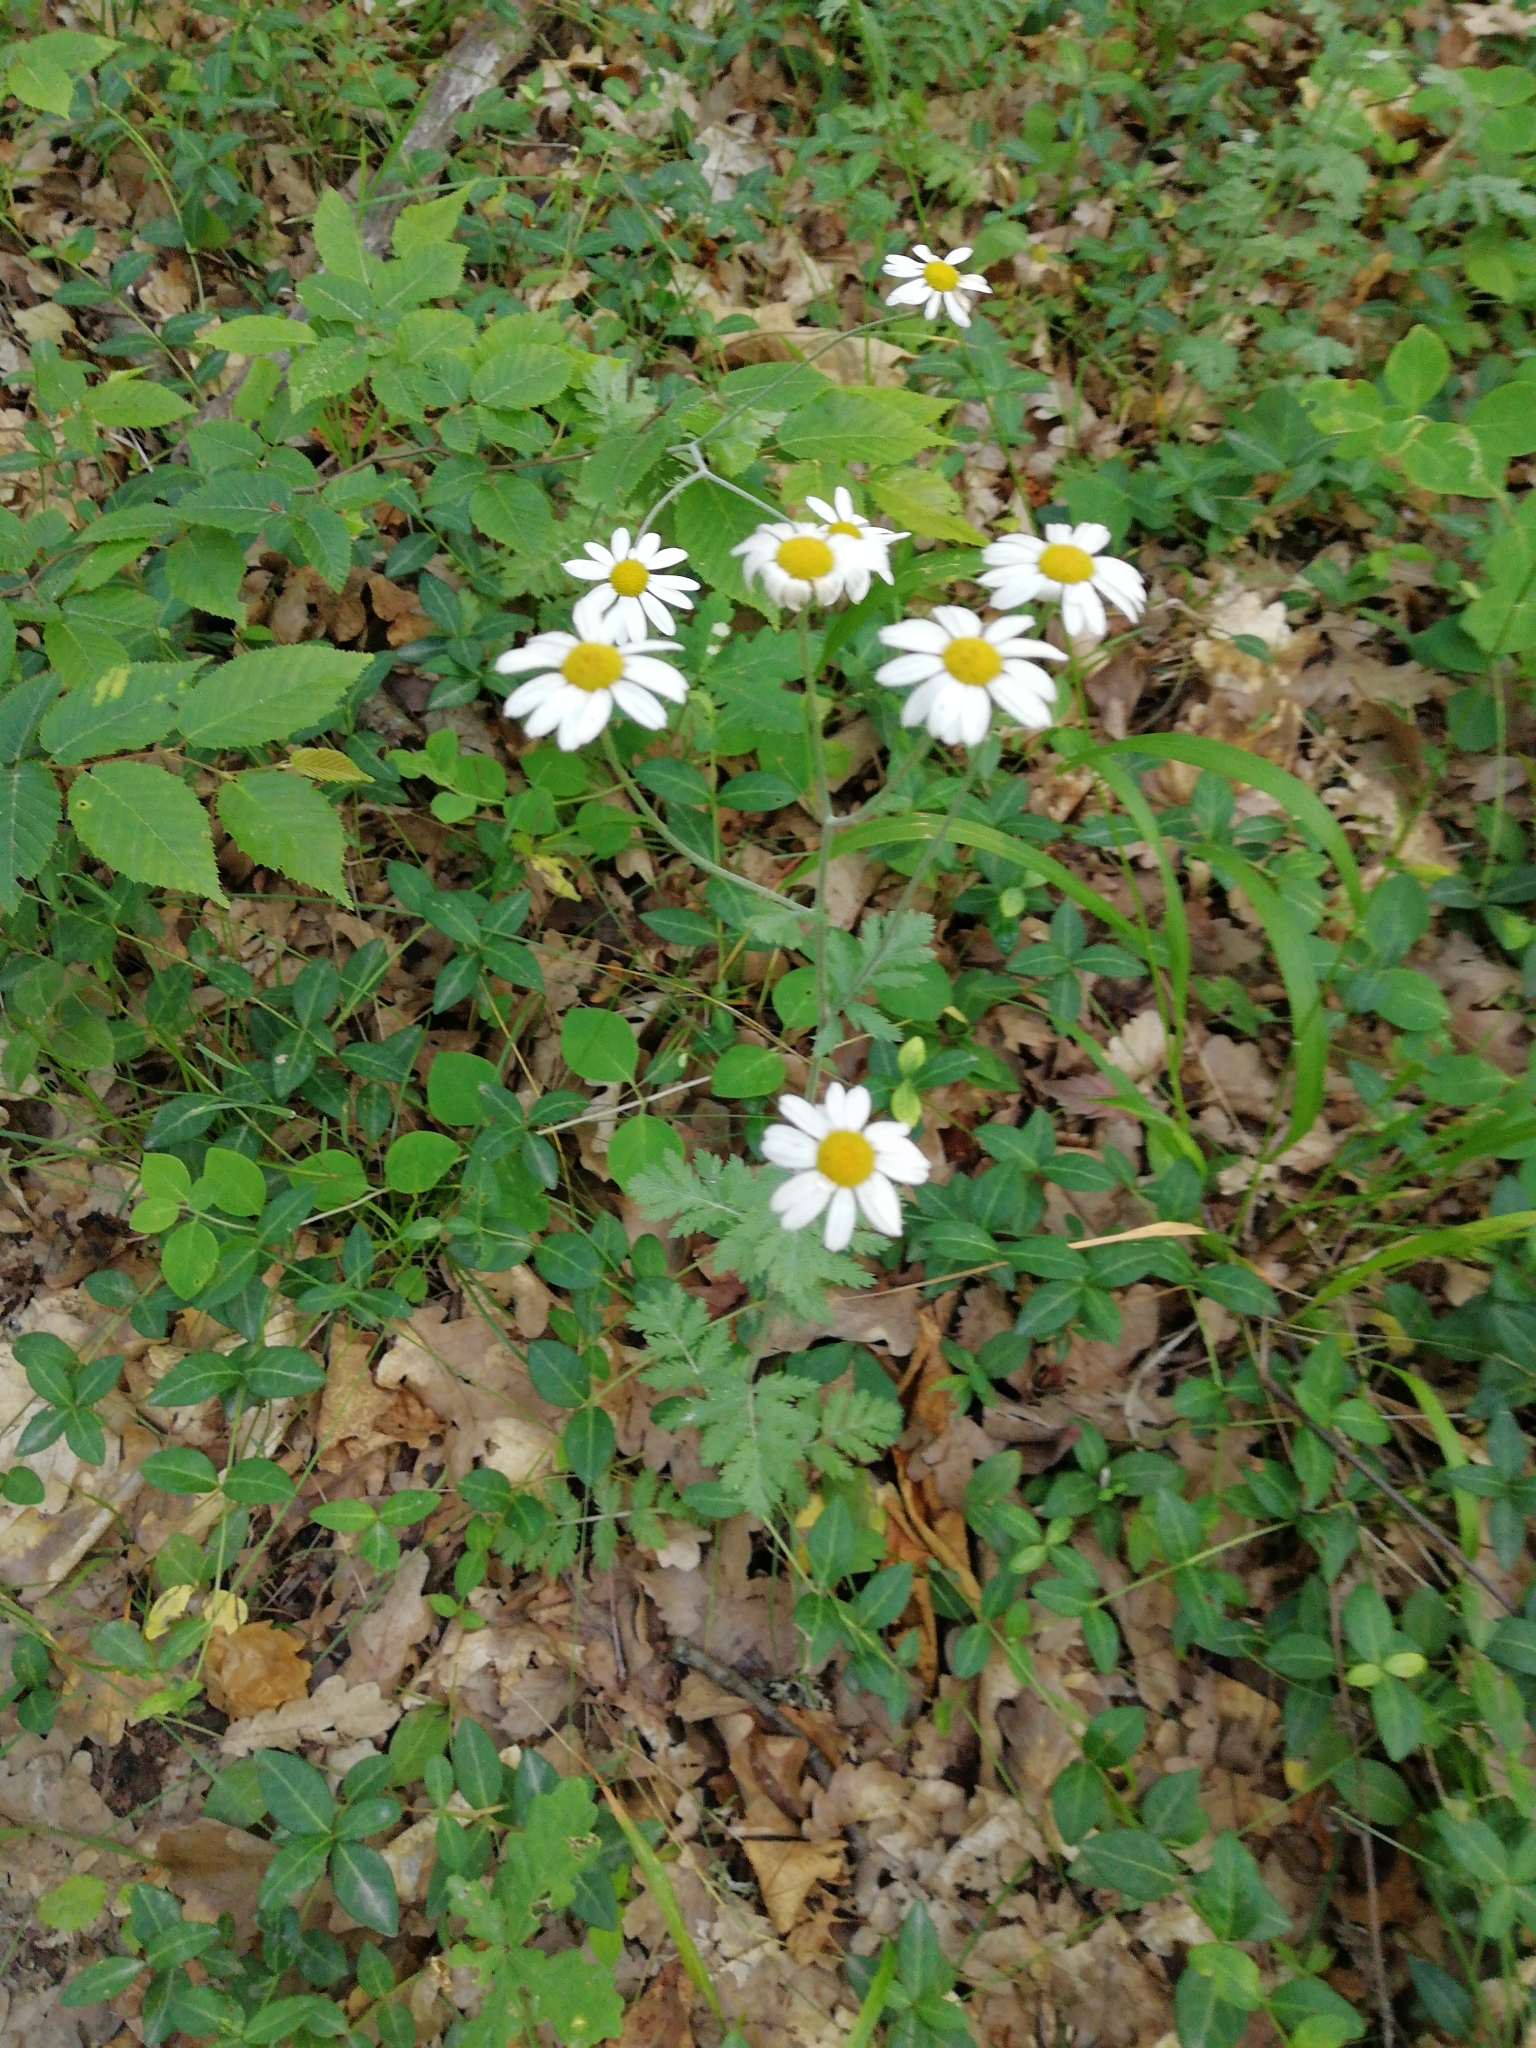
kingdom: Plantae
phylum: Tracheophyta
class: Magnoliopsida
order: Asterales
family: Asteraceae
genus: Tanacetum
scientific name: Tanacetum poteriifolium
